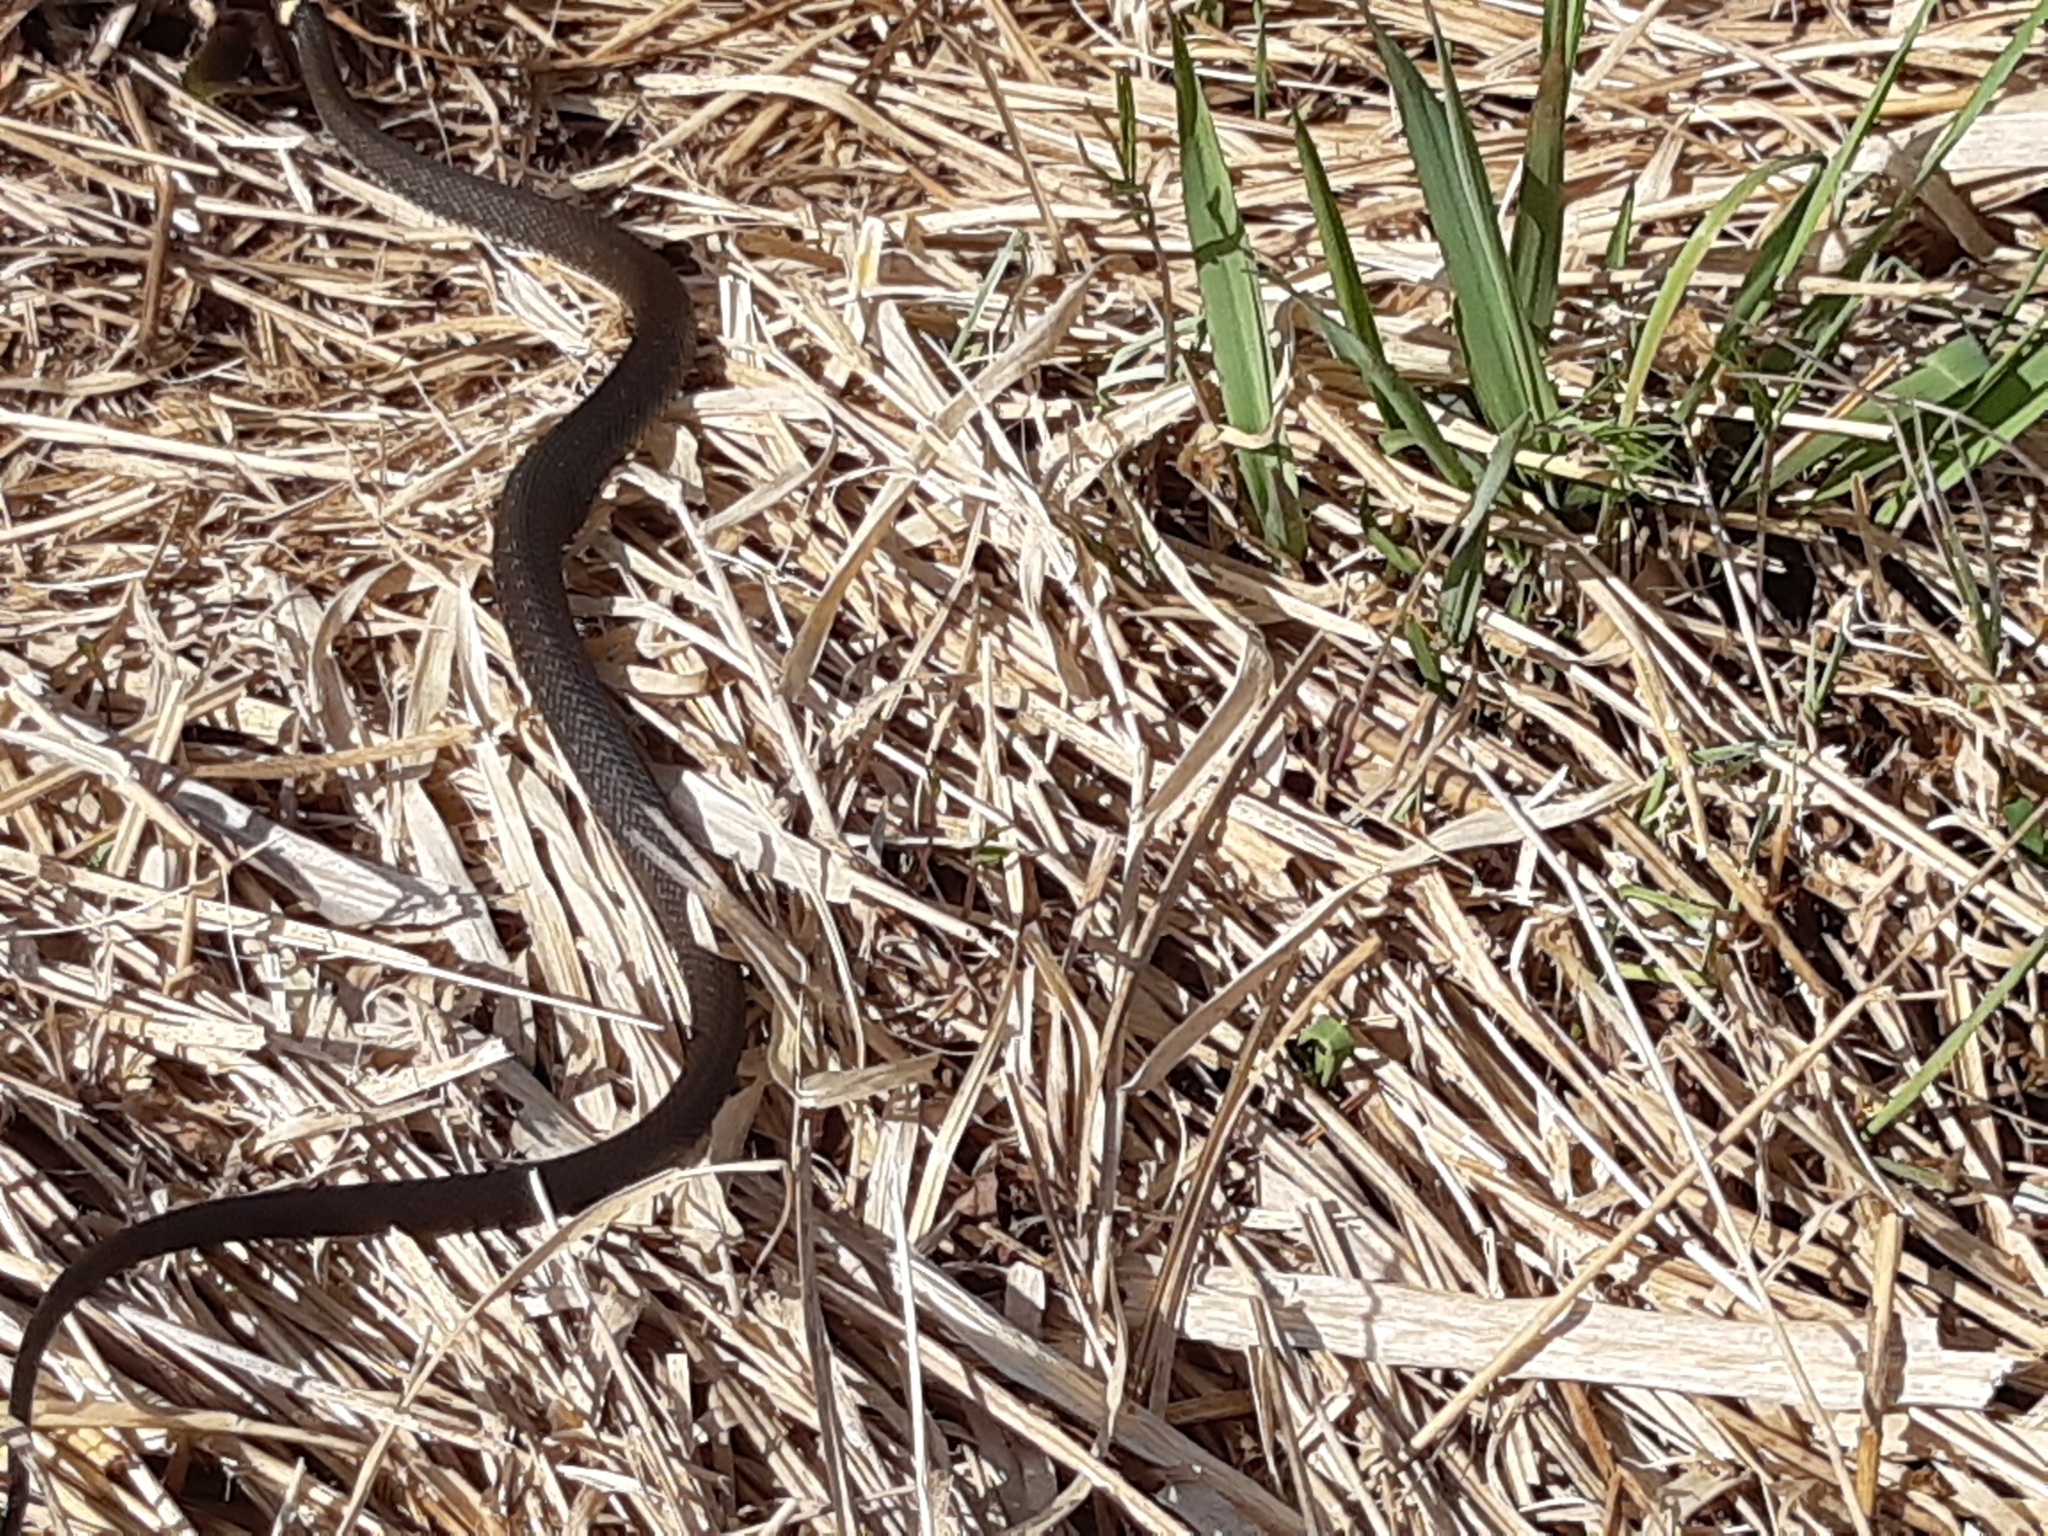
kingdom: Animalia
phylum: Chordata
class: Squamata
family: Colubridae
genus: Natrix
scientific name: Natrix natrix
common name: Grass snake
